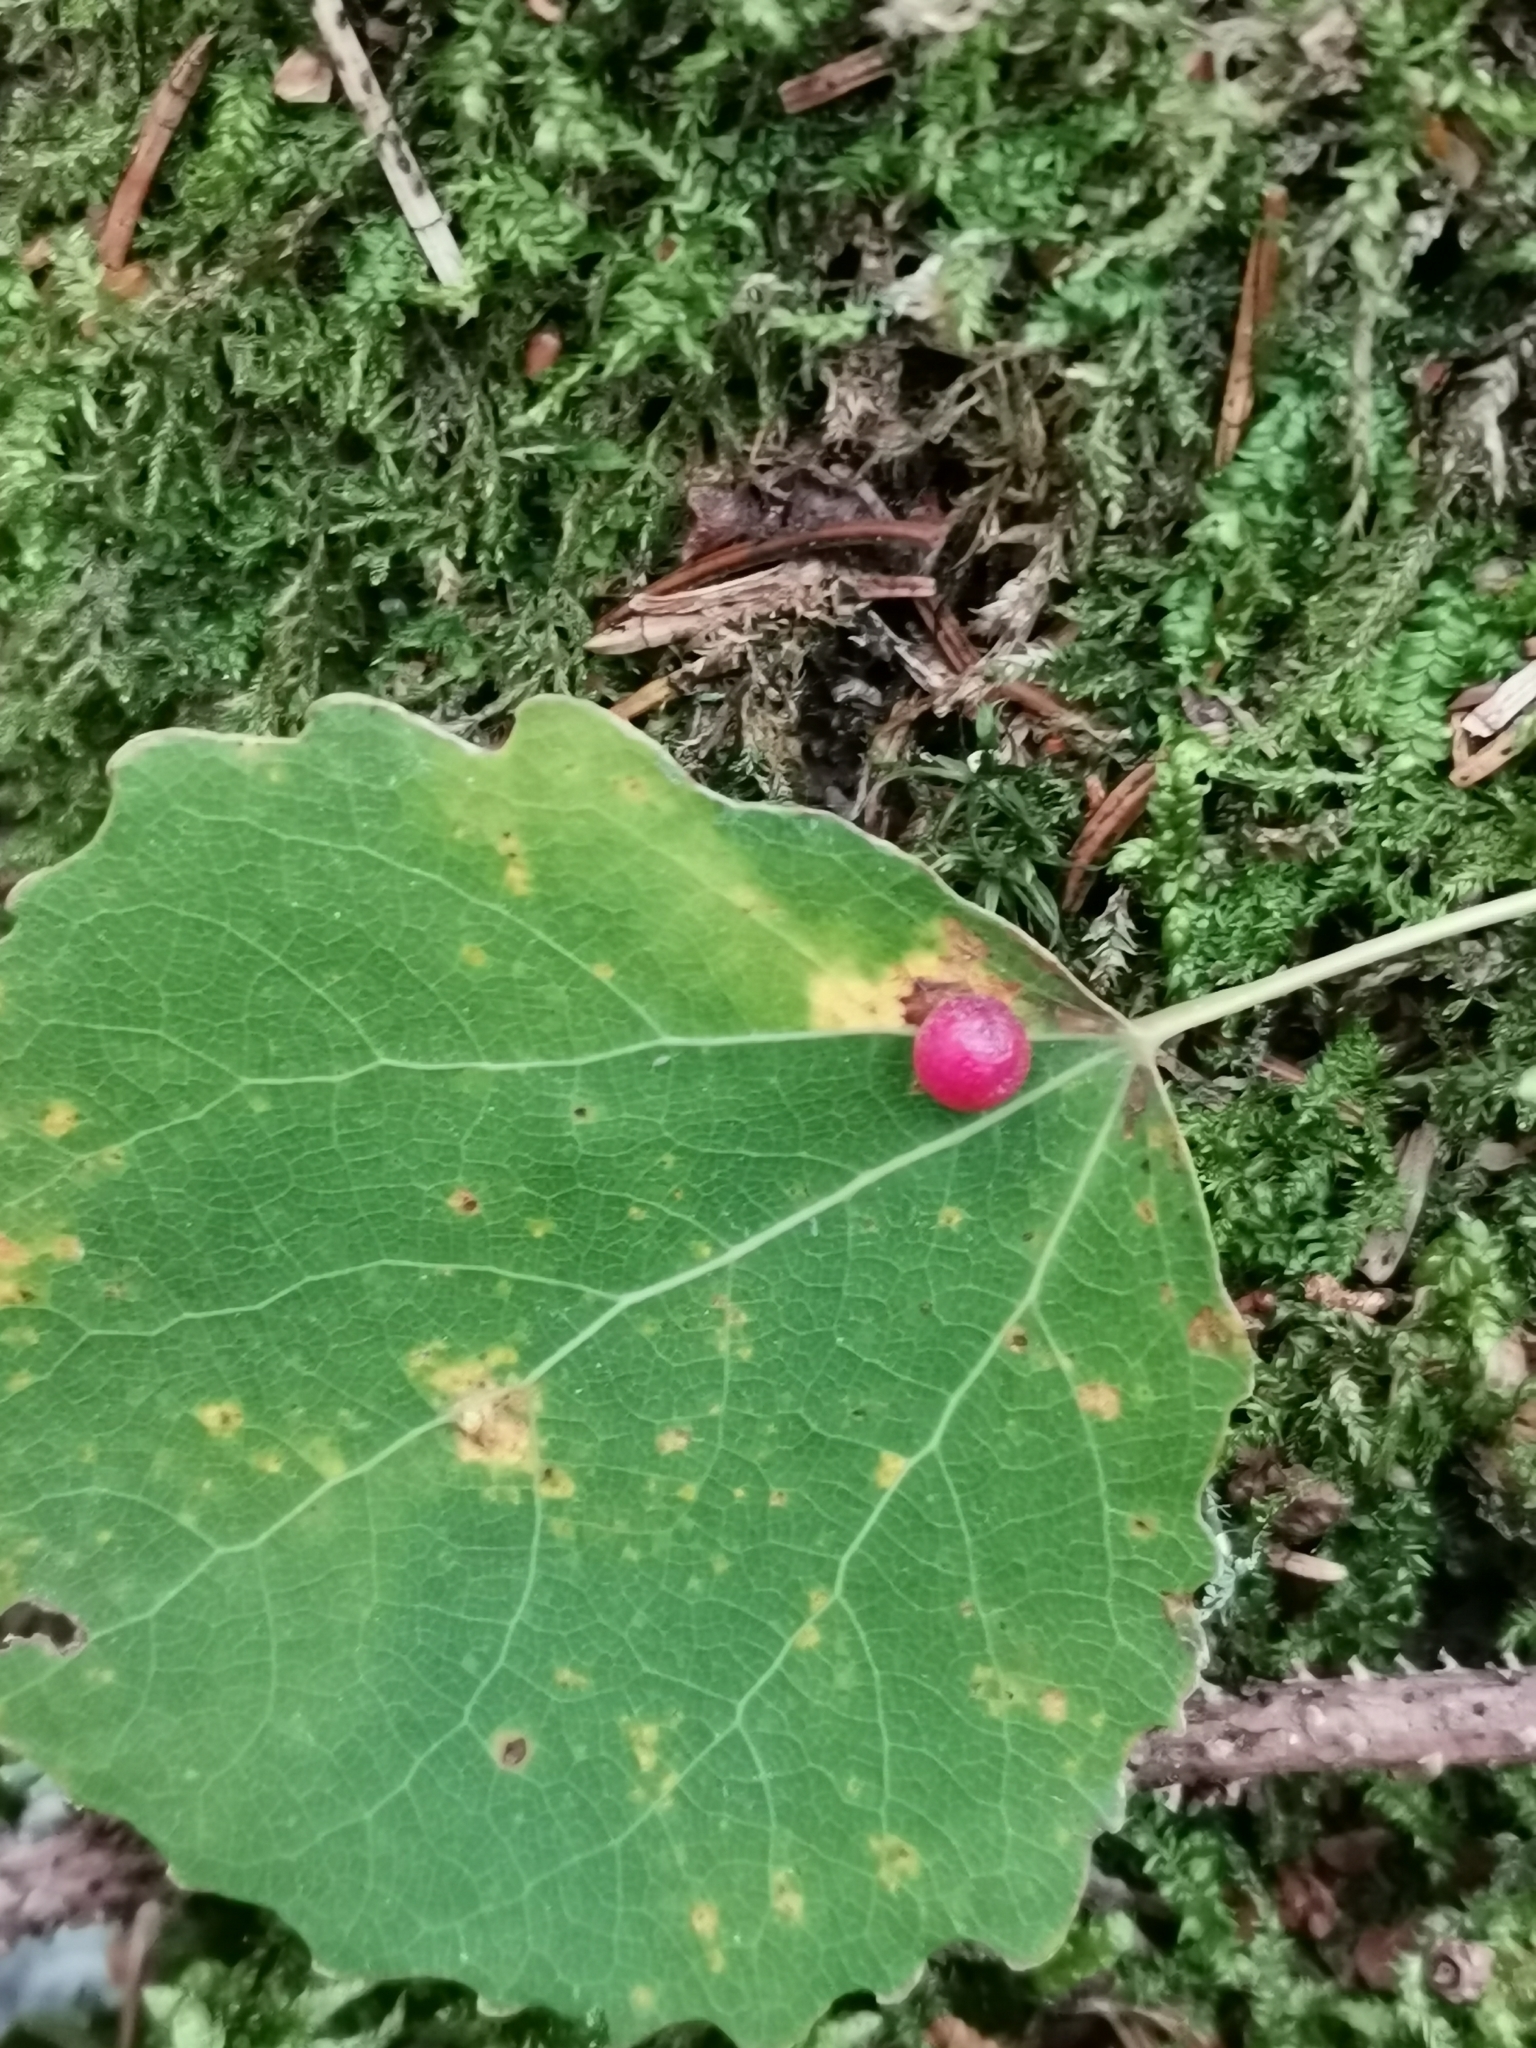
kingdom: Animalia
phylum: Arthropoda
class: Insecta
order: Diptera
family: Cecidomyiidae
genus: Harmandiola
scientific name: Harmandiola tremulae
